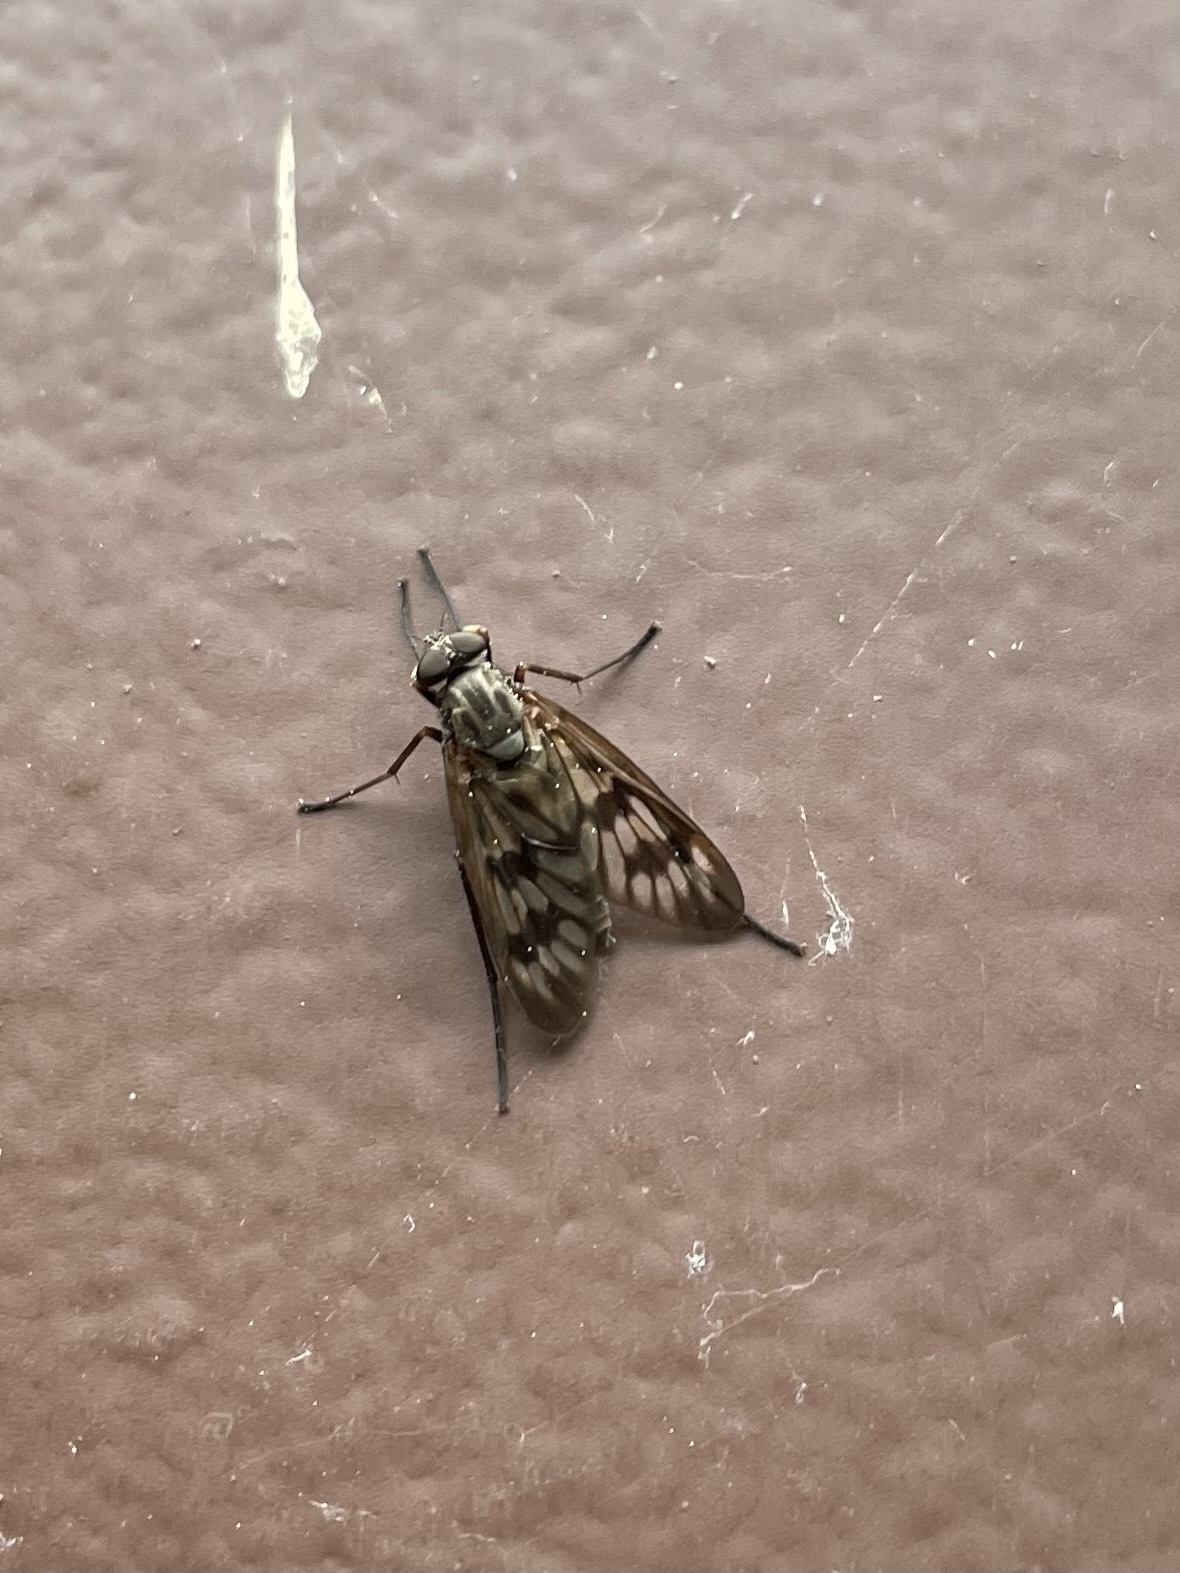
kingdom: Animalia
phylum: Arthropoda
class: Insecta
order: Diptera
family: Rhagionidae
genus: Rhagio
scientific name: Rhagio mystaceus
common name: Common snipe fly
